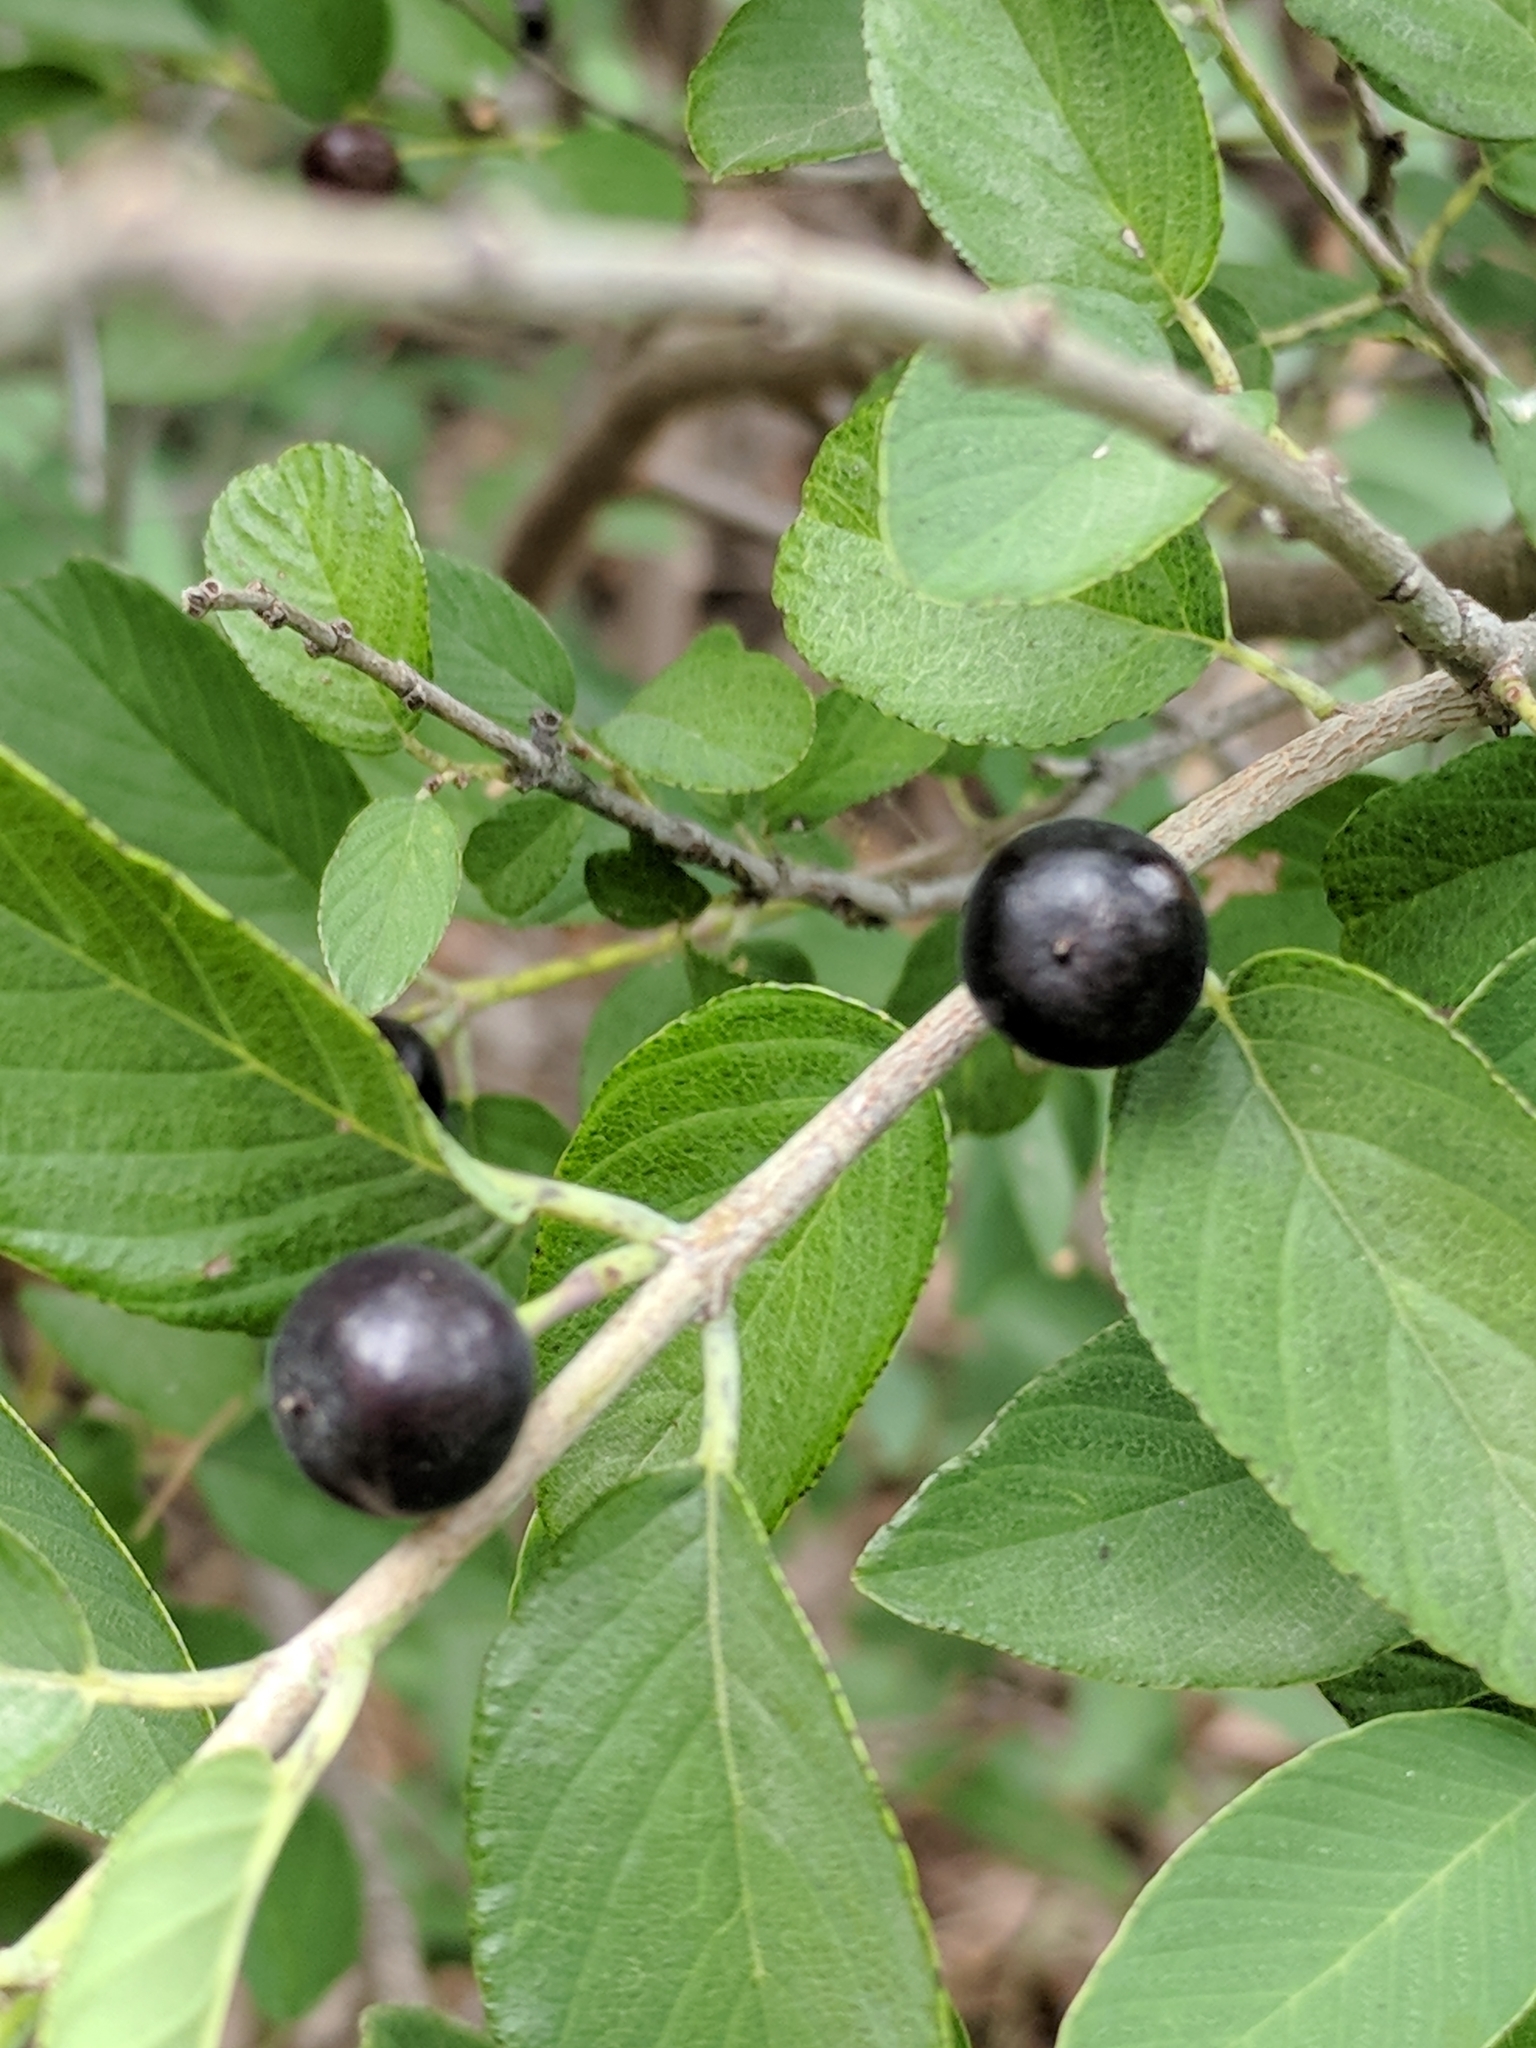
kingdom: Plantae
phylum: Tracheophyta
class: Magnoliopsida
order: Rosales
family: Rhamnaceae
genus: Karwinskia
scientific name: Karwinskia humboldtiana
